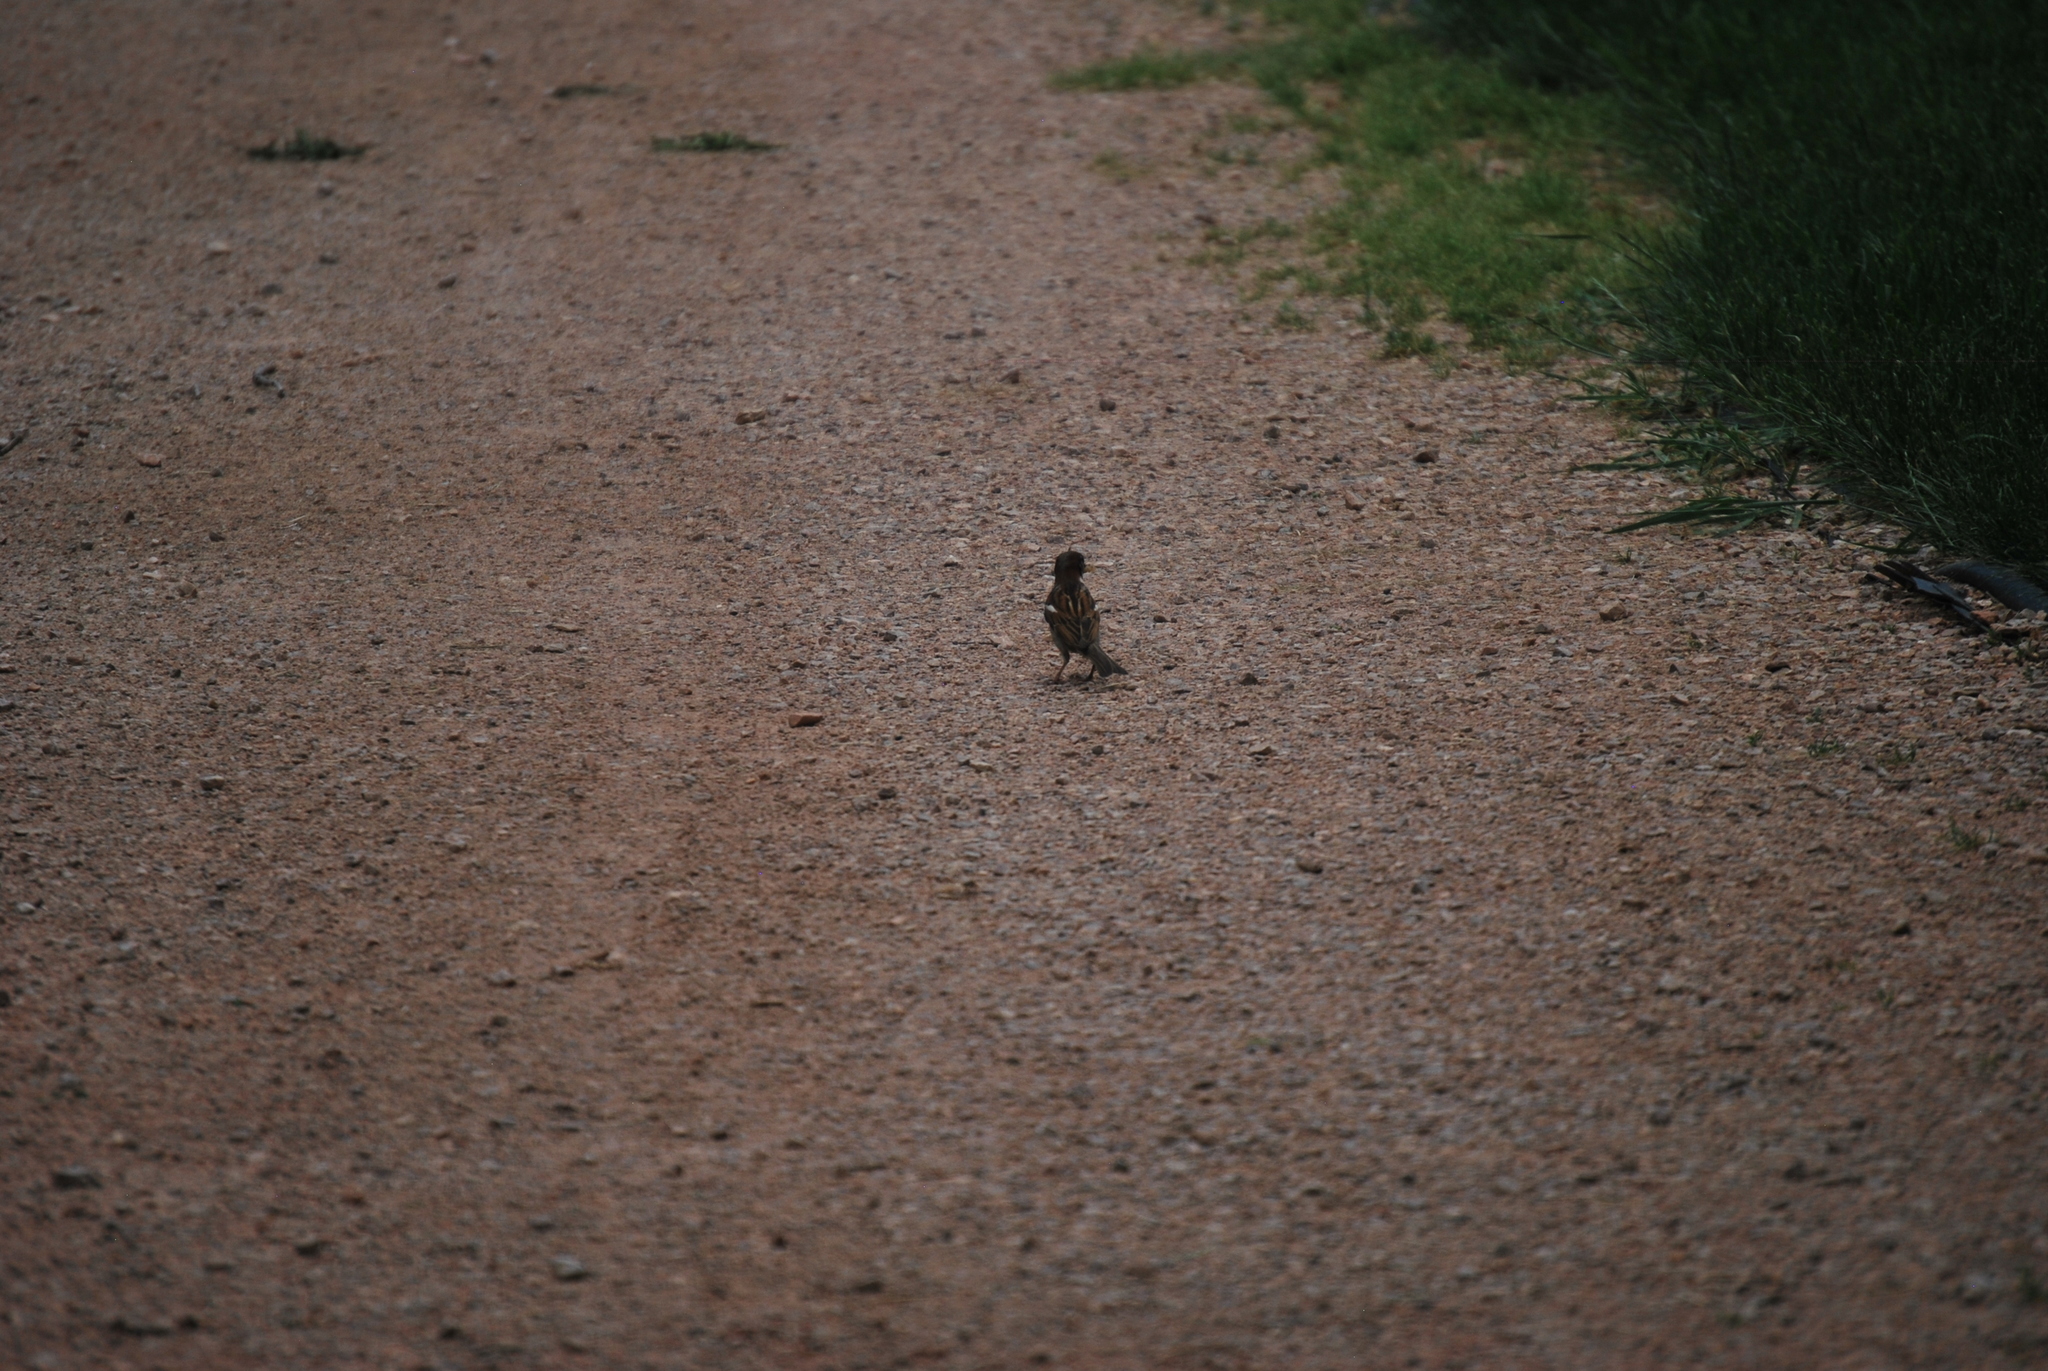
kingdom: Animalia
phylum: Chordata
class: Aves
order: Passeriformes
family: Passeridae
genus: Passer
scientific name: Passer domesticus
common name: House sparrow
